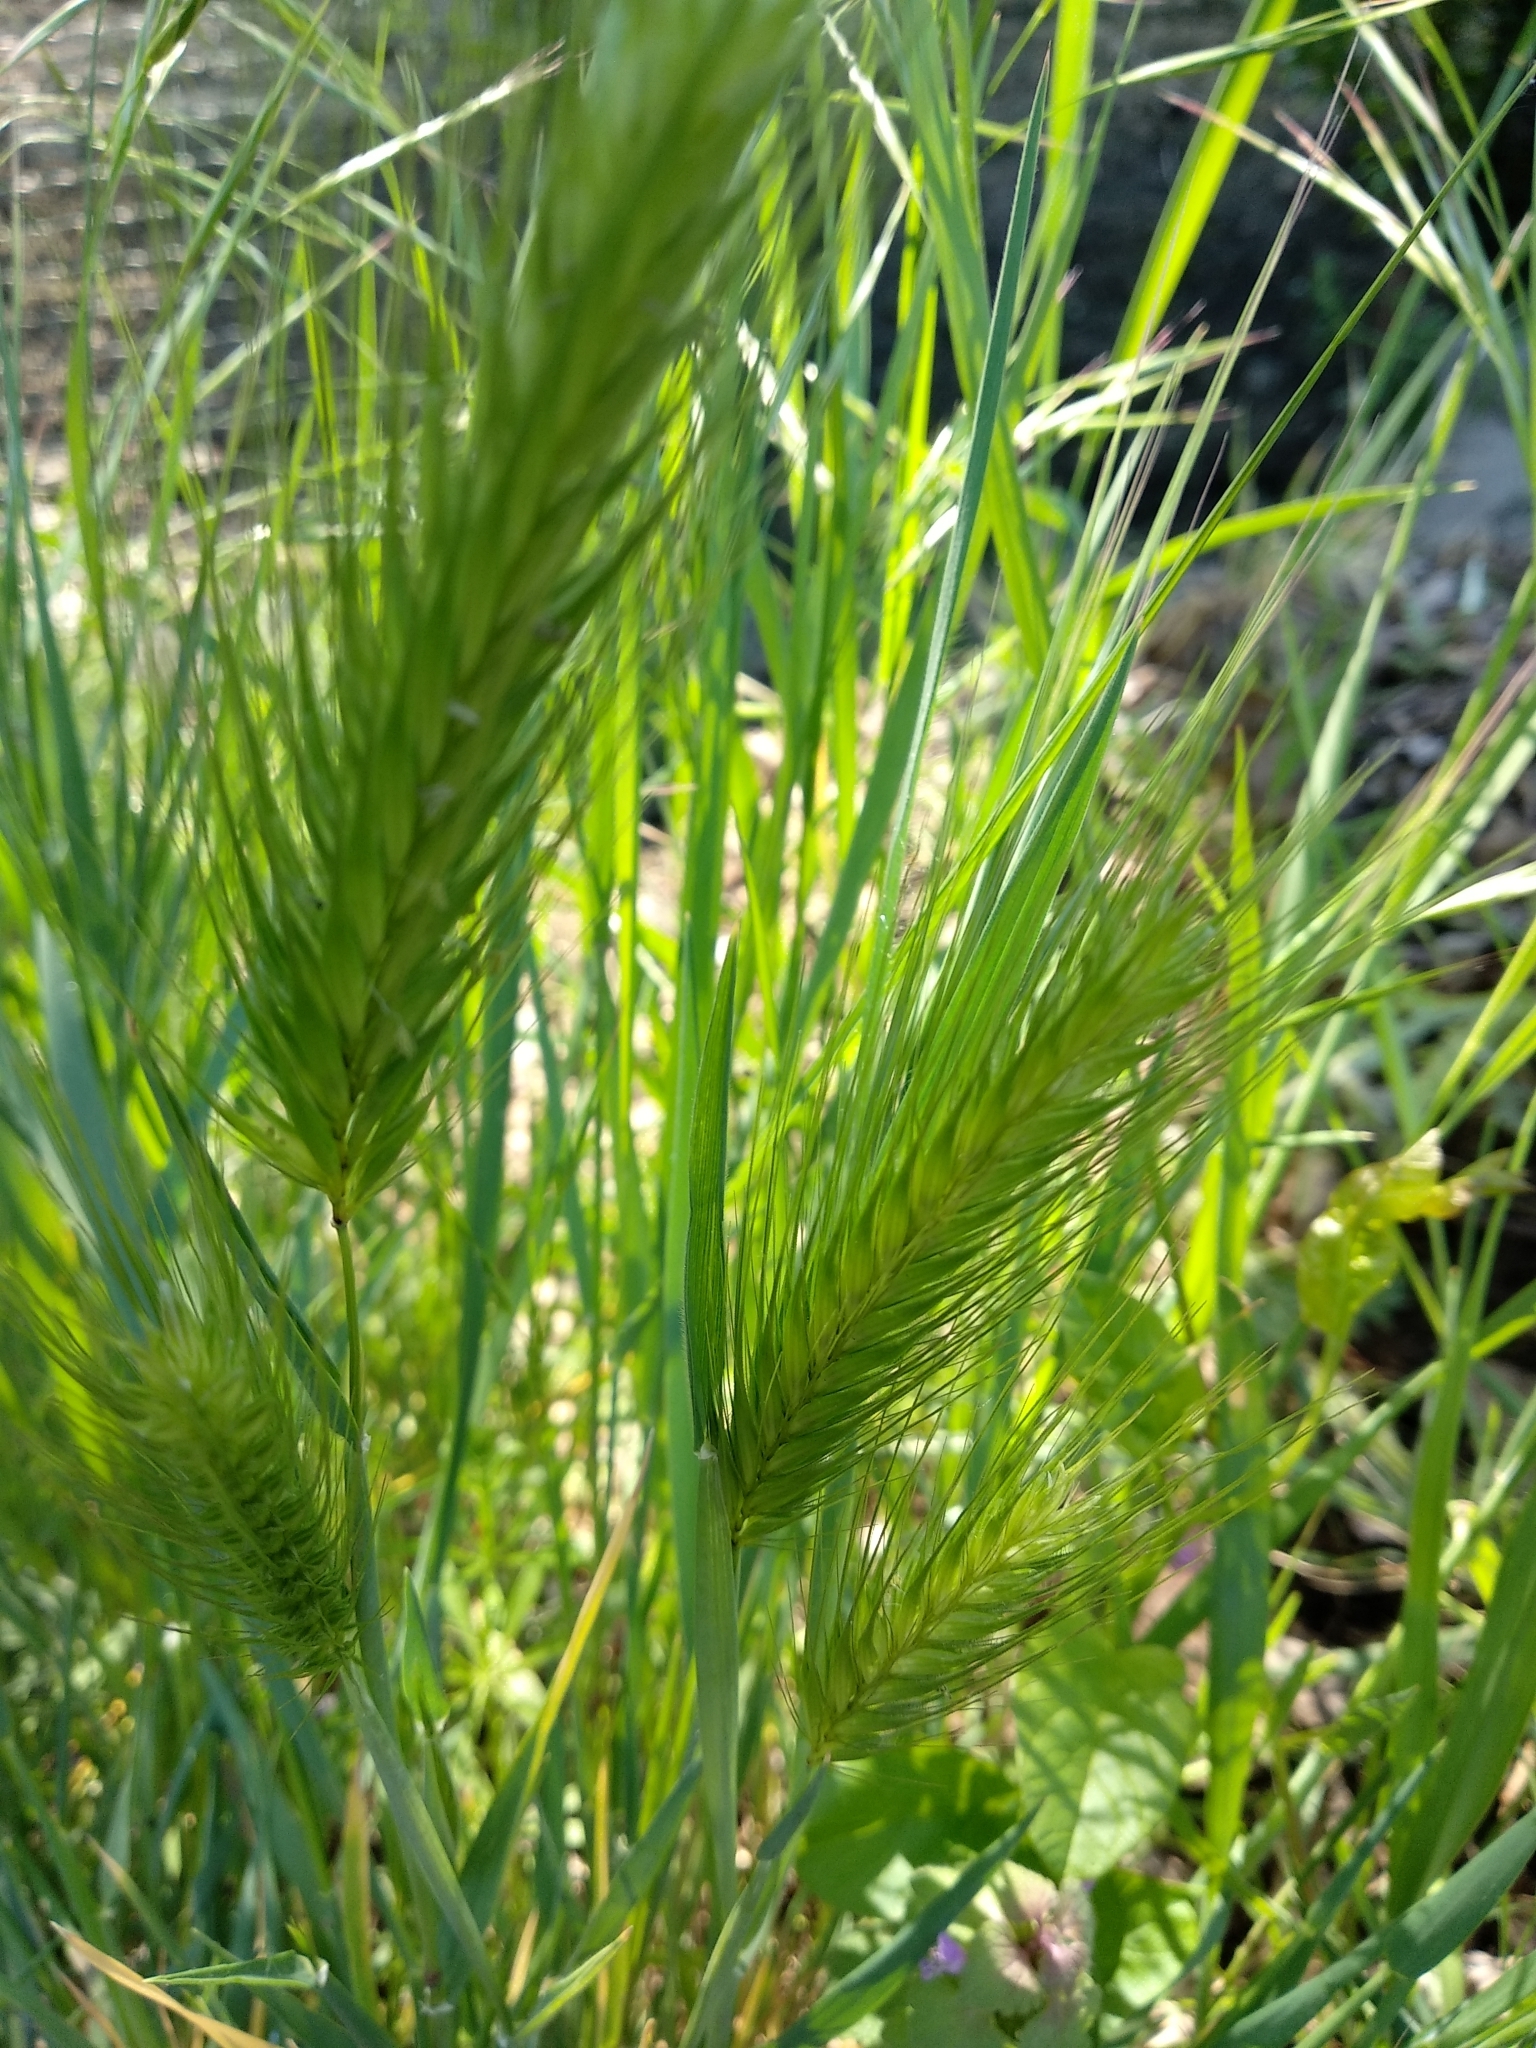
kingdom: Plantae
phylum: Tracheophyta
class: Liliopsida
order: Poales
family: Poaceae
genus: Hordeum
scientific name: Hordeum murinum
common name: Wall barley
